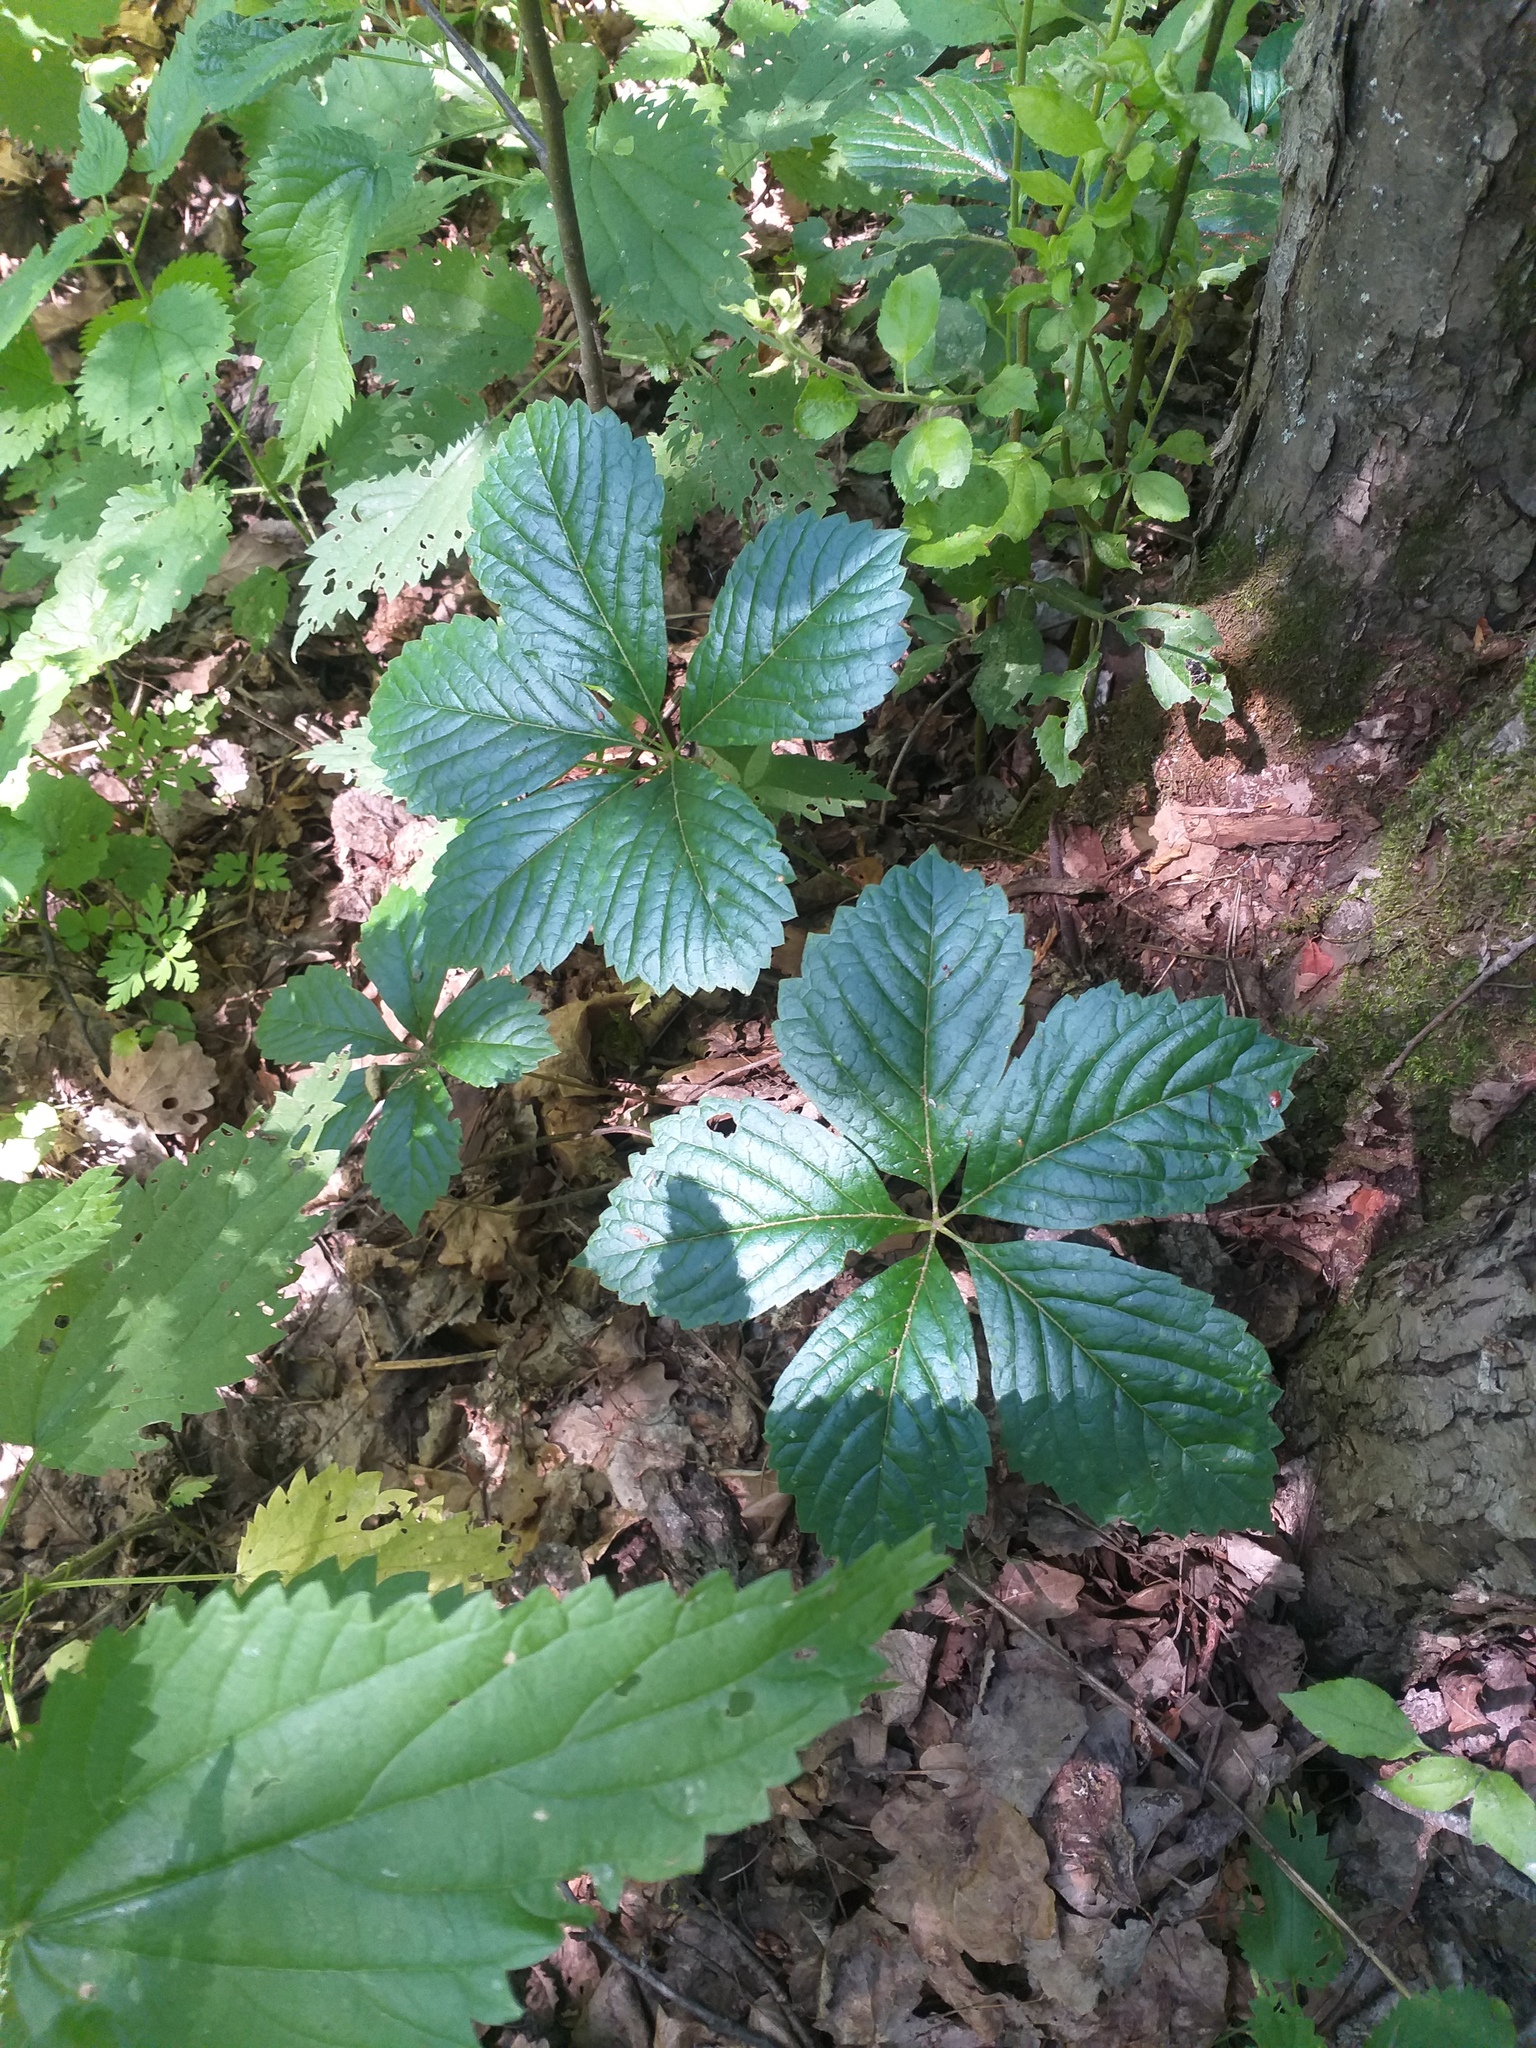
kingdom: Plantae
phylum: Tracheophyta
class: Magnoliopsida
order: Vitales
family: Vitaceae
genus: Parthenocissus
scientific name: Parthenocissus inserta
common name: False virginia-creeper
